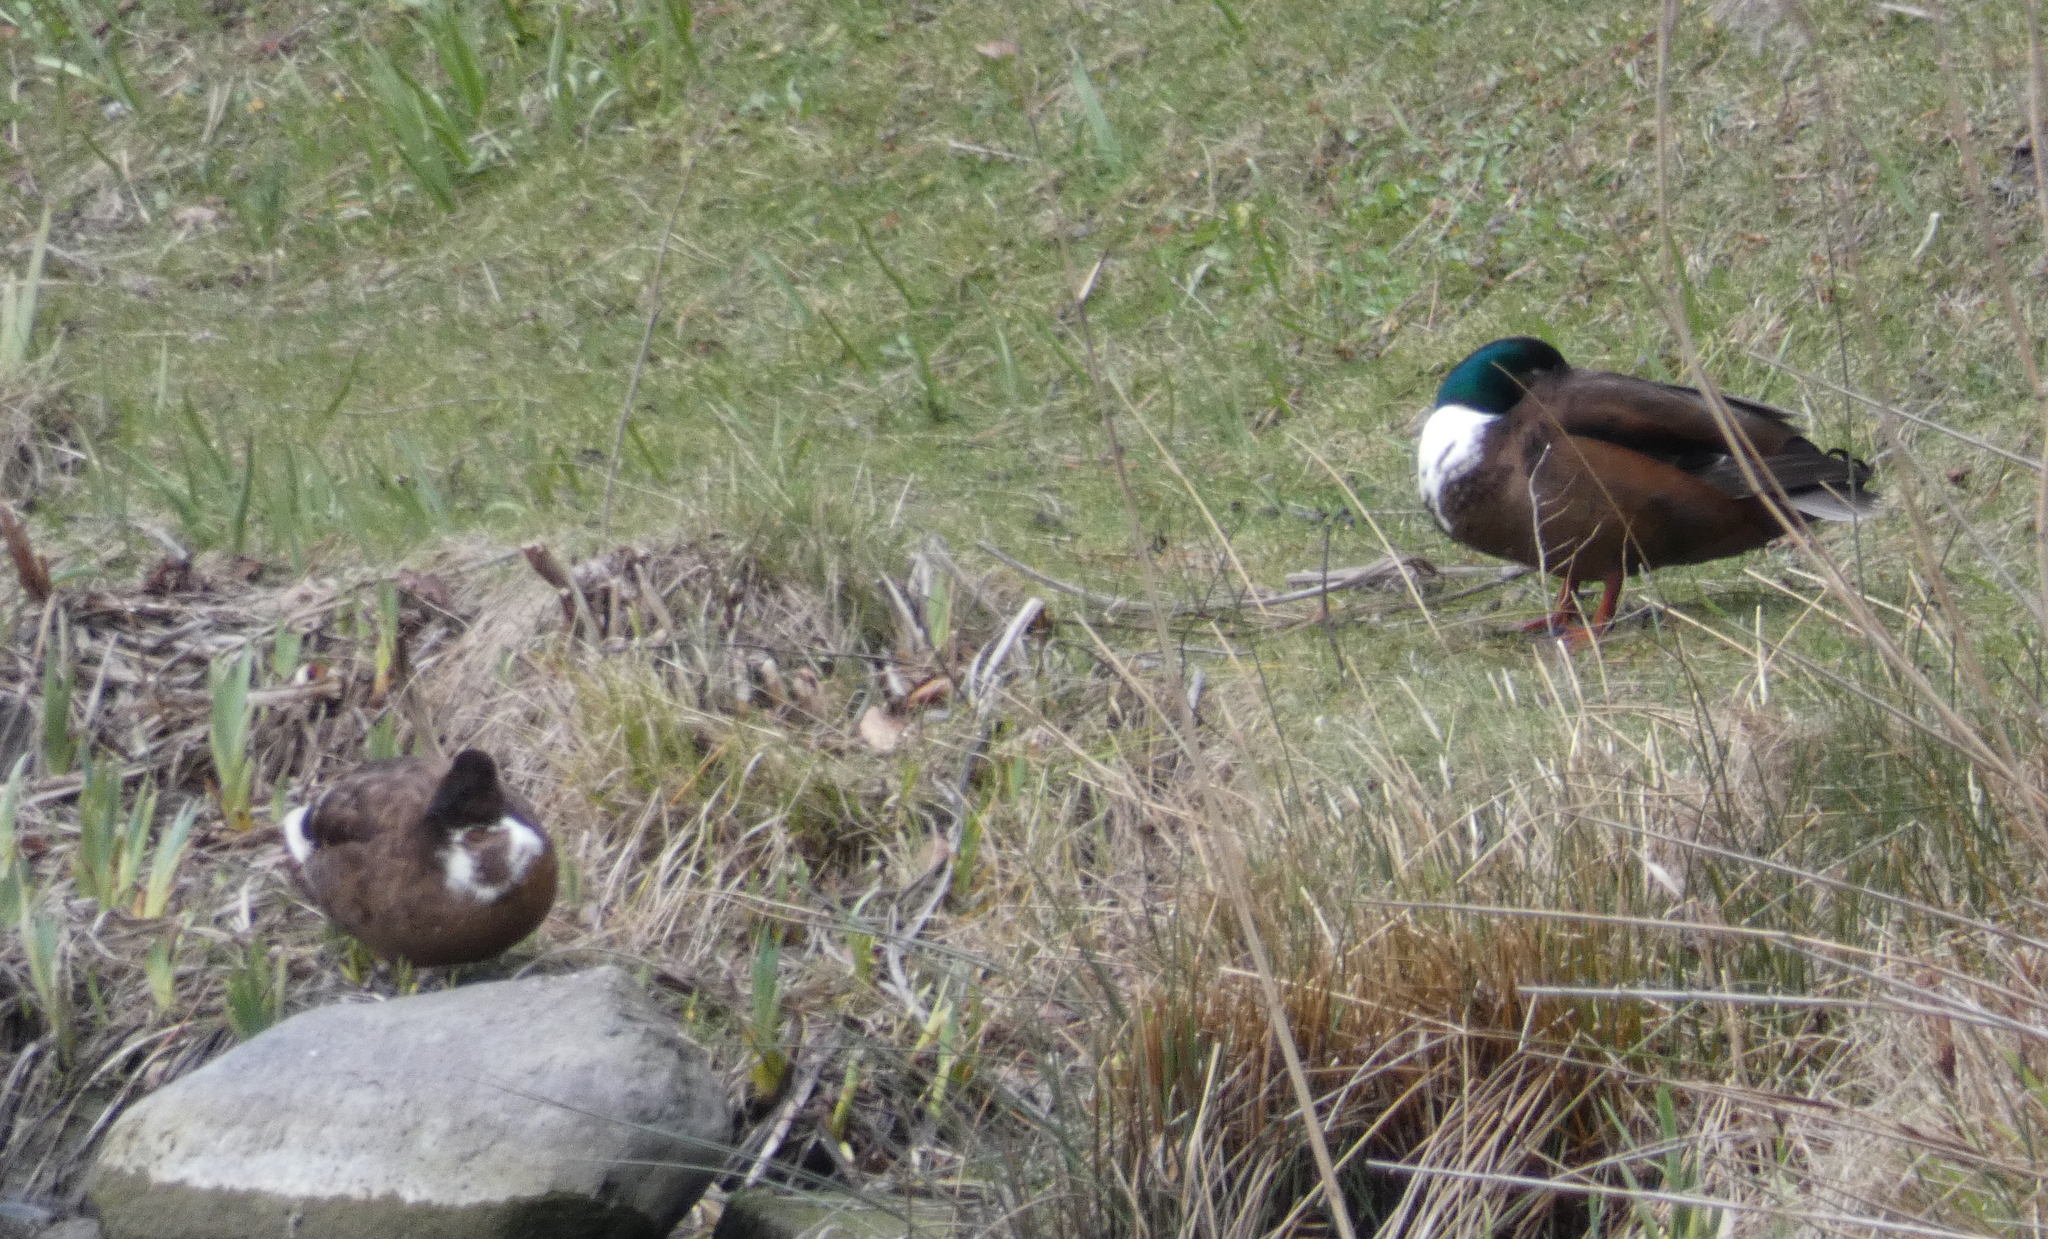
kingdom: Animalia
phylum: Chordata
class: Aves
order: Anseriformes
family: Anatidae
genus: Anas
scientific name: Anas platyrhynchos
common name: Mallard
